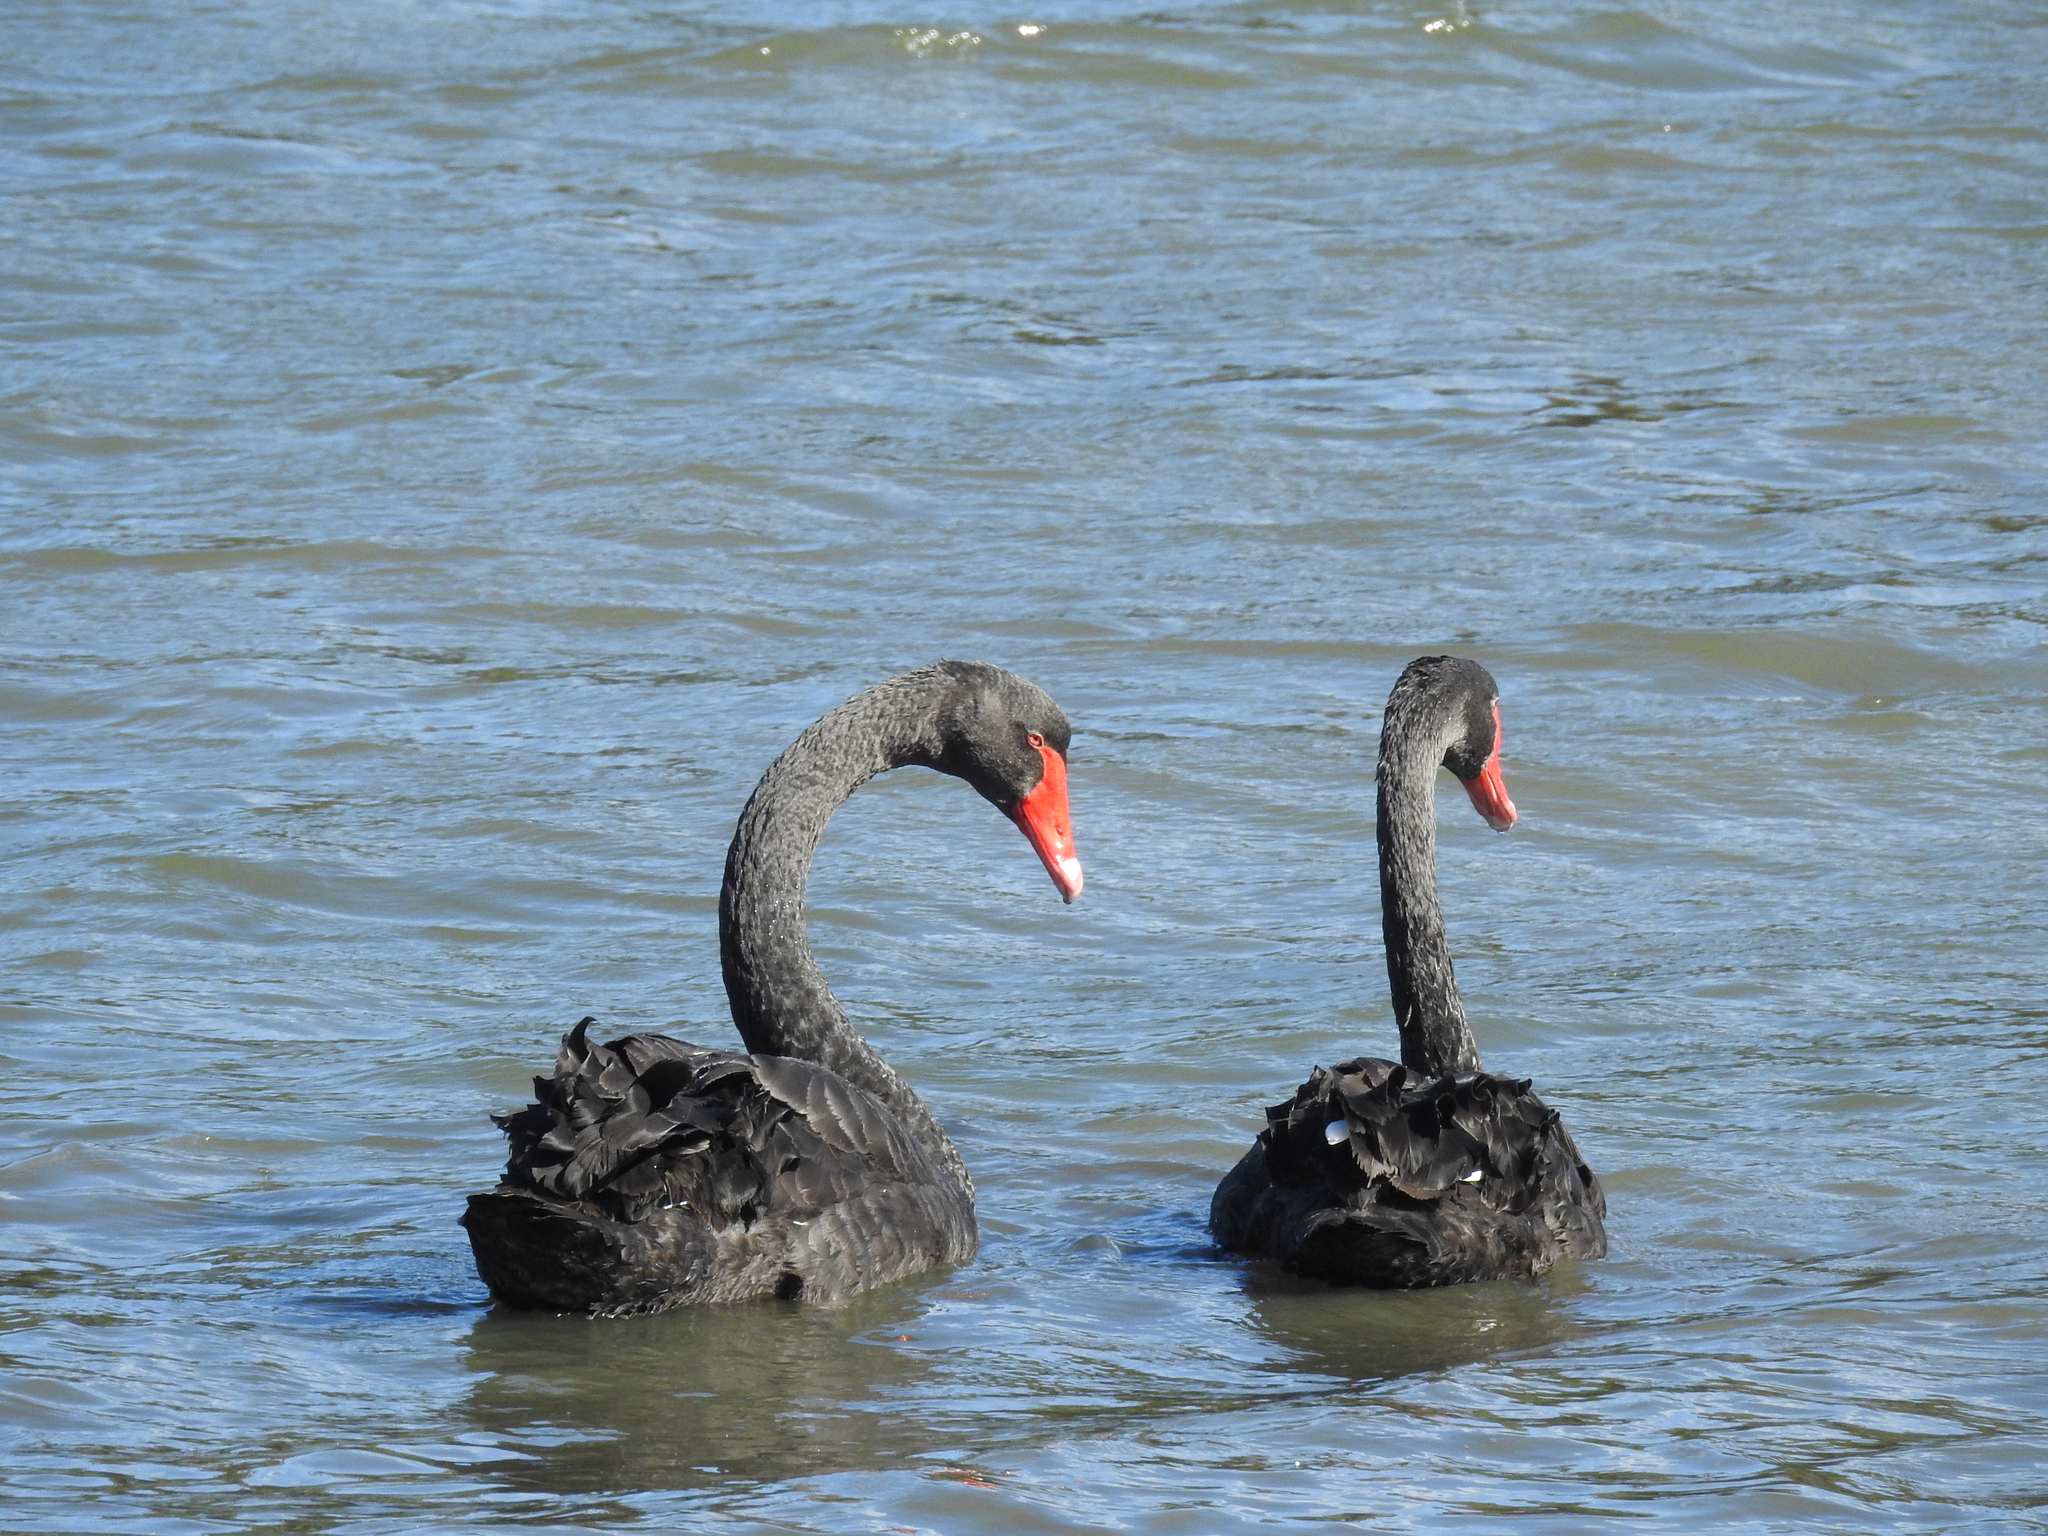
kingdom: Animalia
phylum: Chordata
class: Aves
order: Anseriformes
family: Anatidae
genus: Cygnus
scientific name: Cygnus atratus
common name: Black swan
